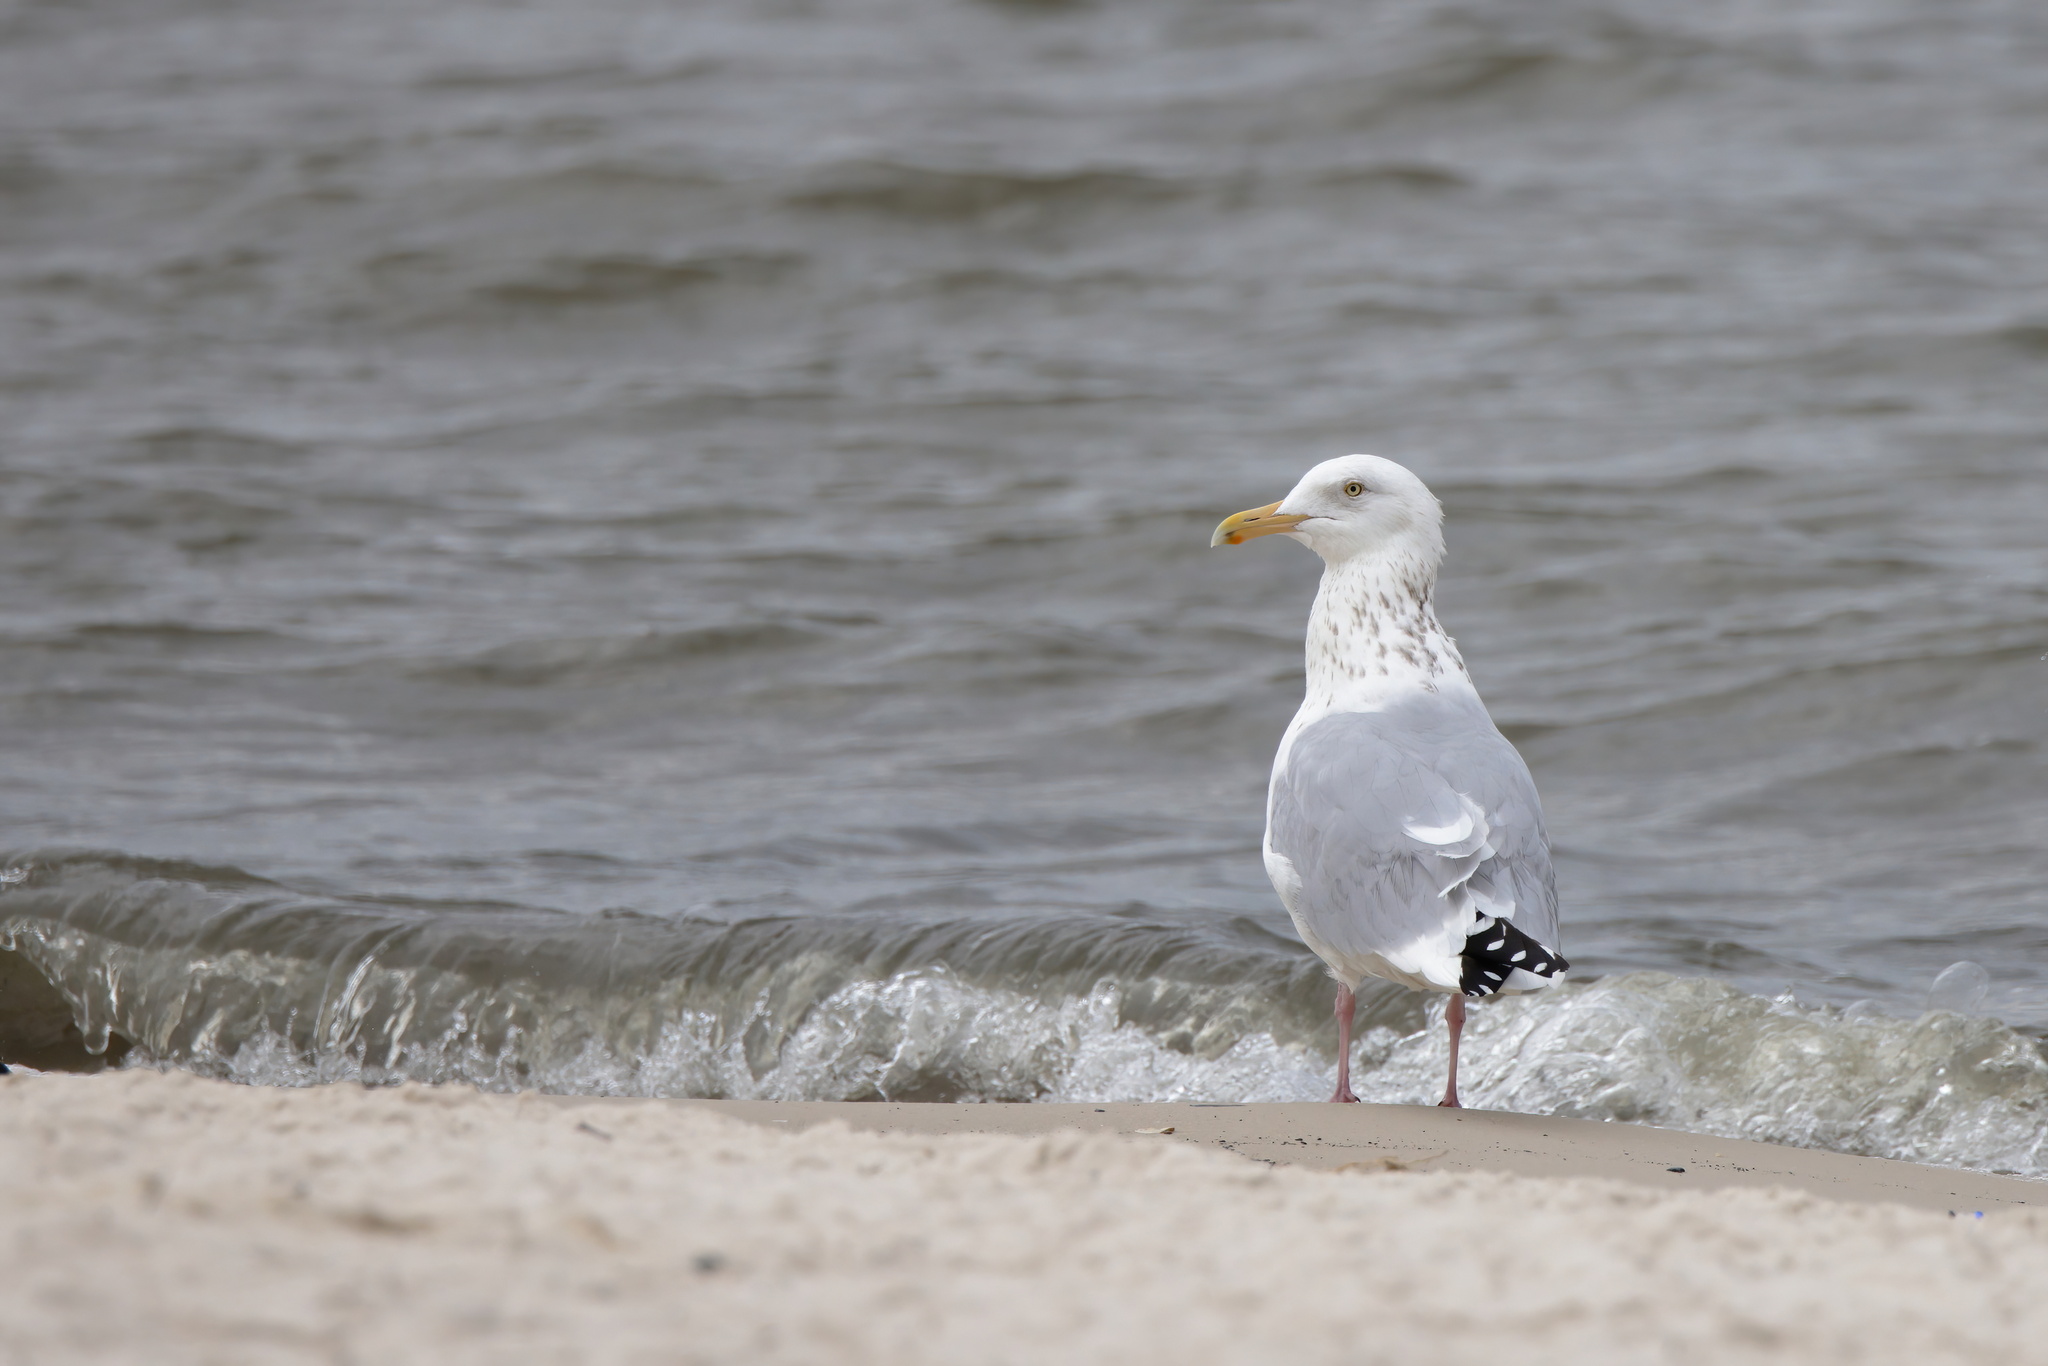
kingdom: Animalia
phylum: Chordata
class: Aves
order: Charadriiformes
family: Laridae
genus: Larus
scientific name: Larus argentatus
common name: Herring gull
